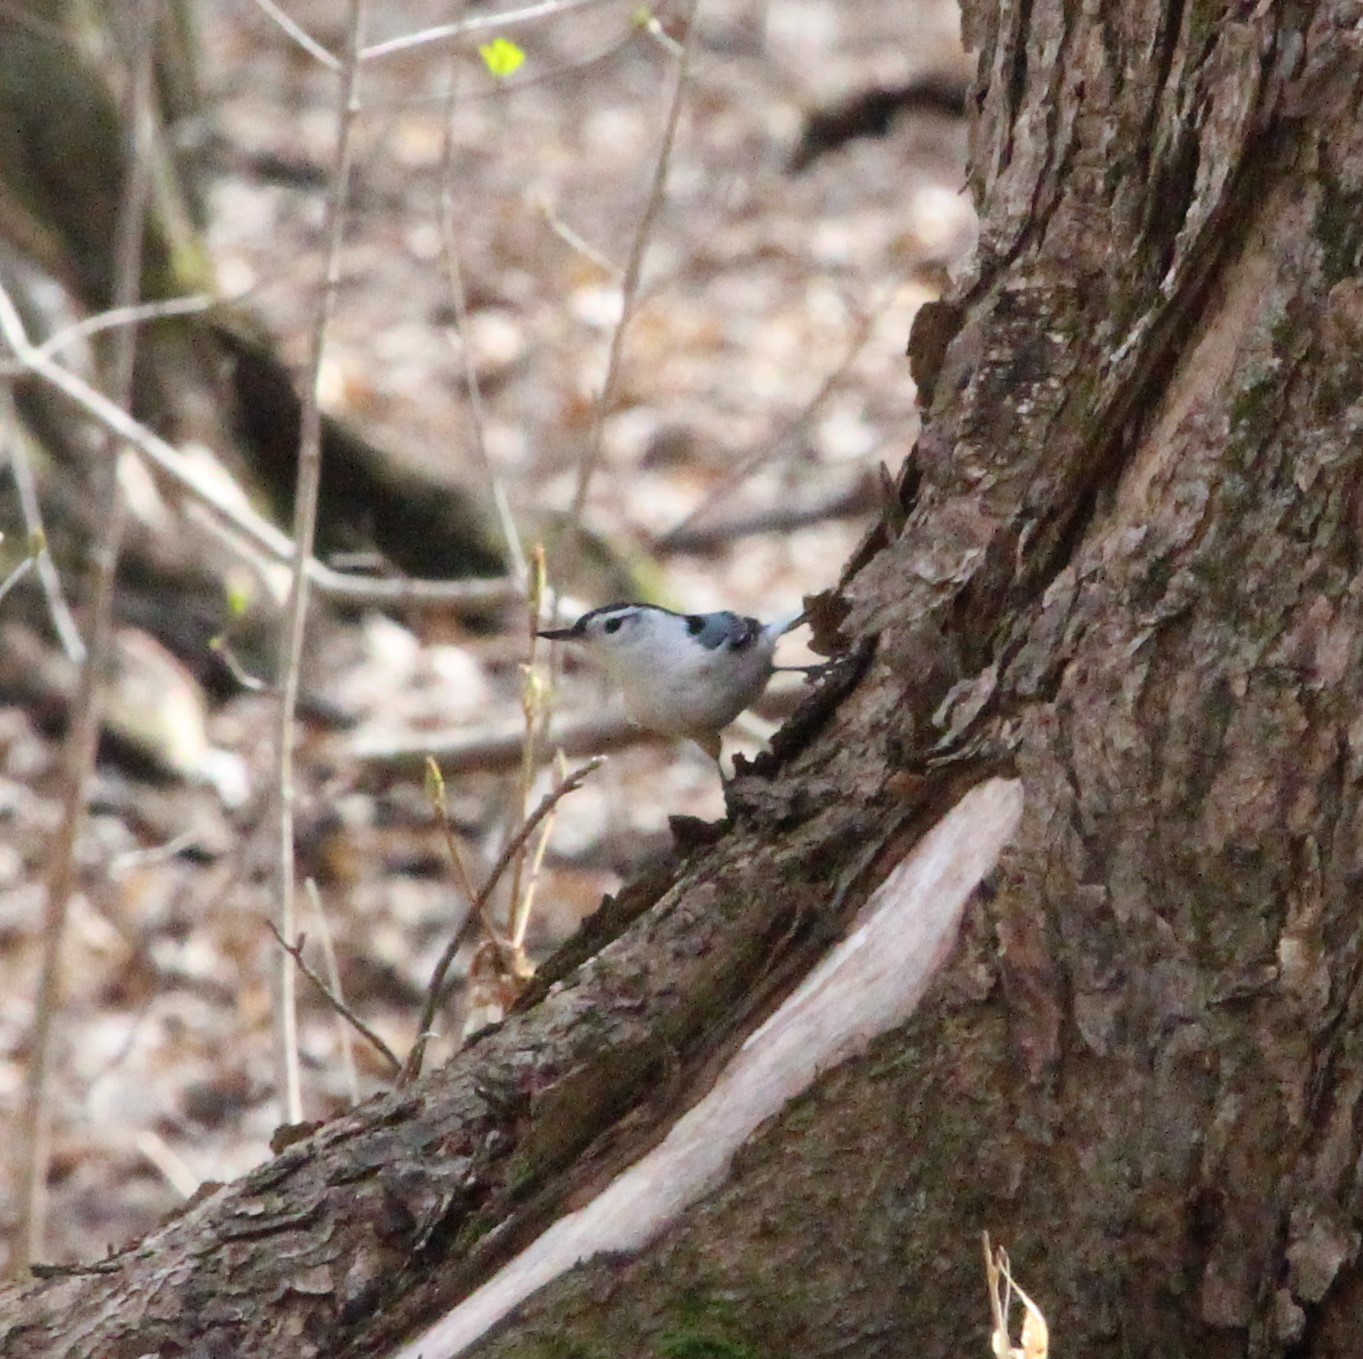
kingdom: Animalia
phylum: Chordata
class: Aves
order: Passeriformes
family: Sittidae
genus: Sitta
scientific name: Sitta carolinensis
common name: White-breasted nuthatch
